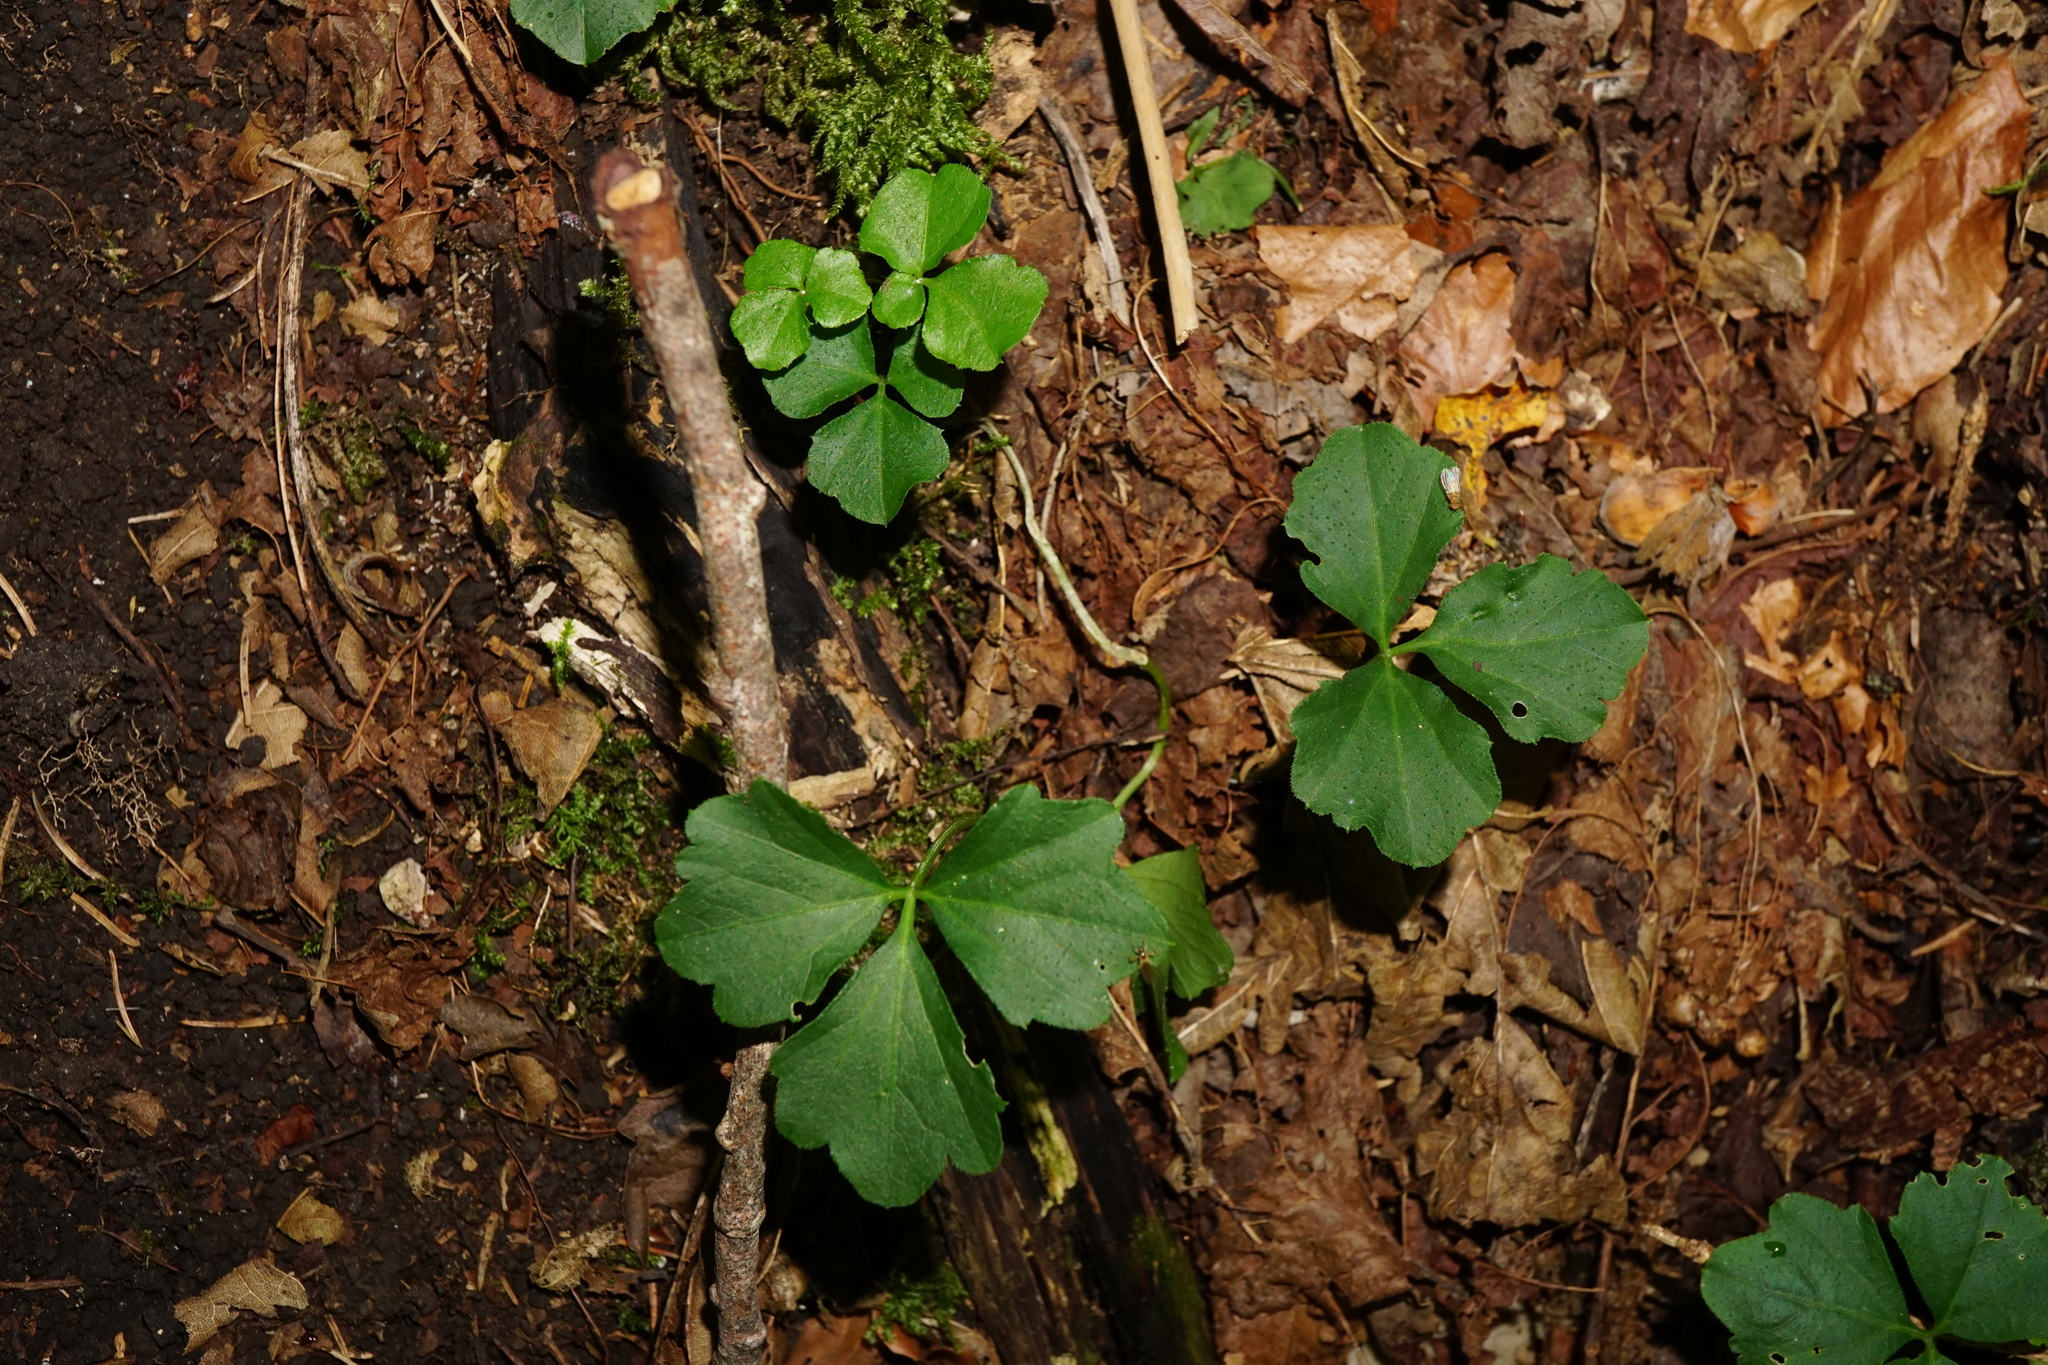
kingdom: Plantae
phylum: Tracheophyta
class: Magnoliopsida
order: Brassicales
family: Brassicaceae
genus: Cardamine
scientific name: Cardamine trifolia
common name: Trefoil cress
